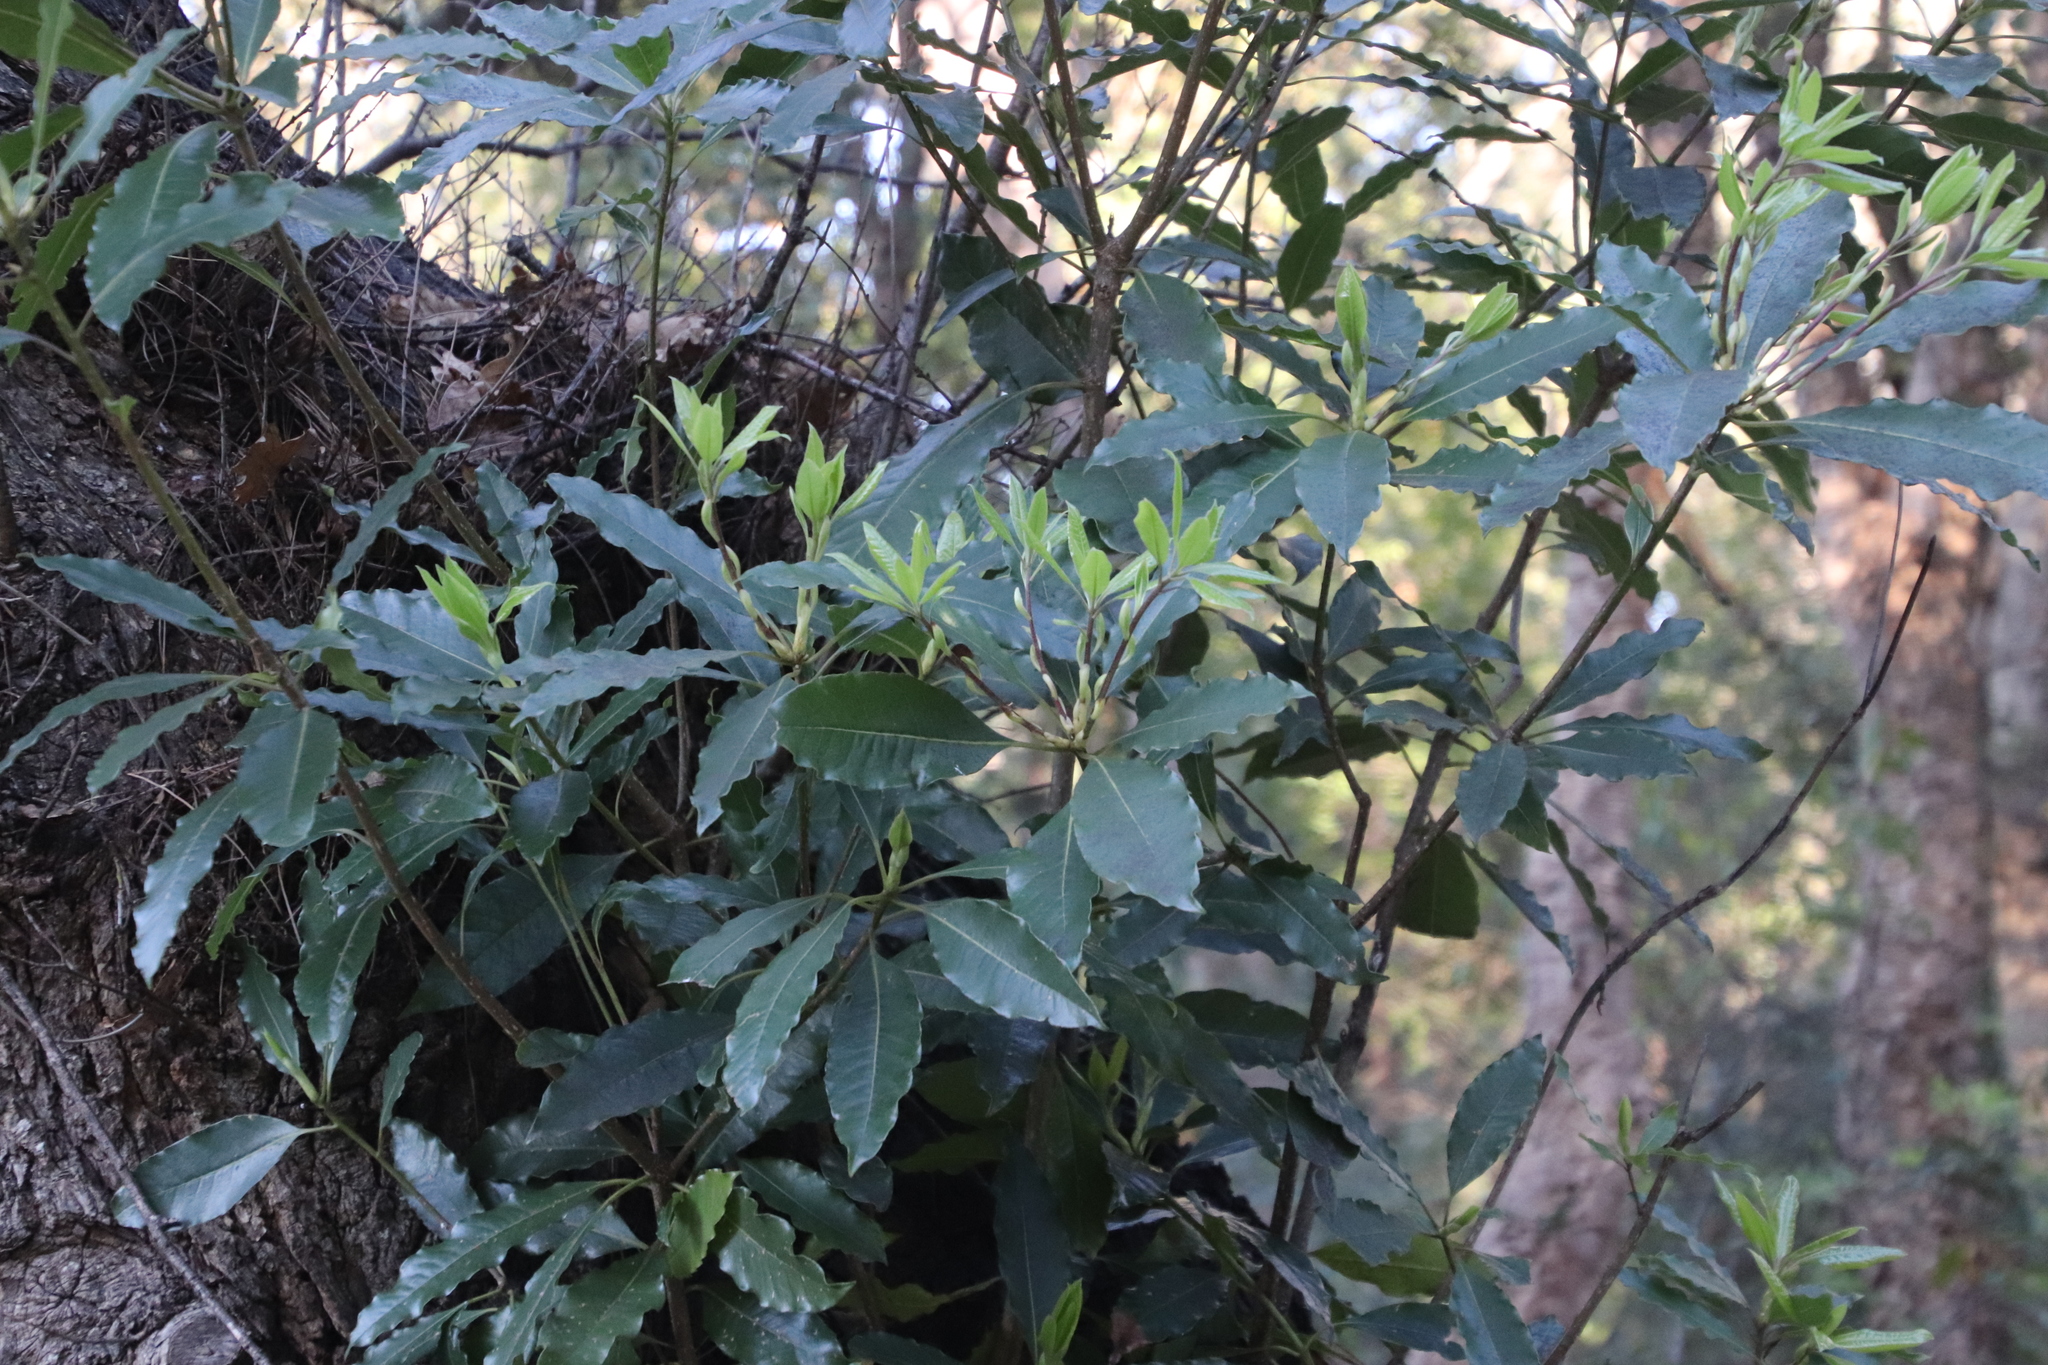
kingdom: Plantae
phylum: Tracheophyta
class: Magnoliopsida
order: Apiales
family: Pittosporaceae
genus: Pittosporum
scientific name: Pittosporum undulatum
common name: Australian cheesewood
